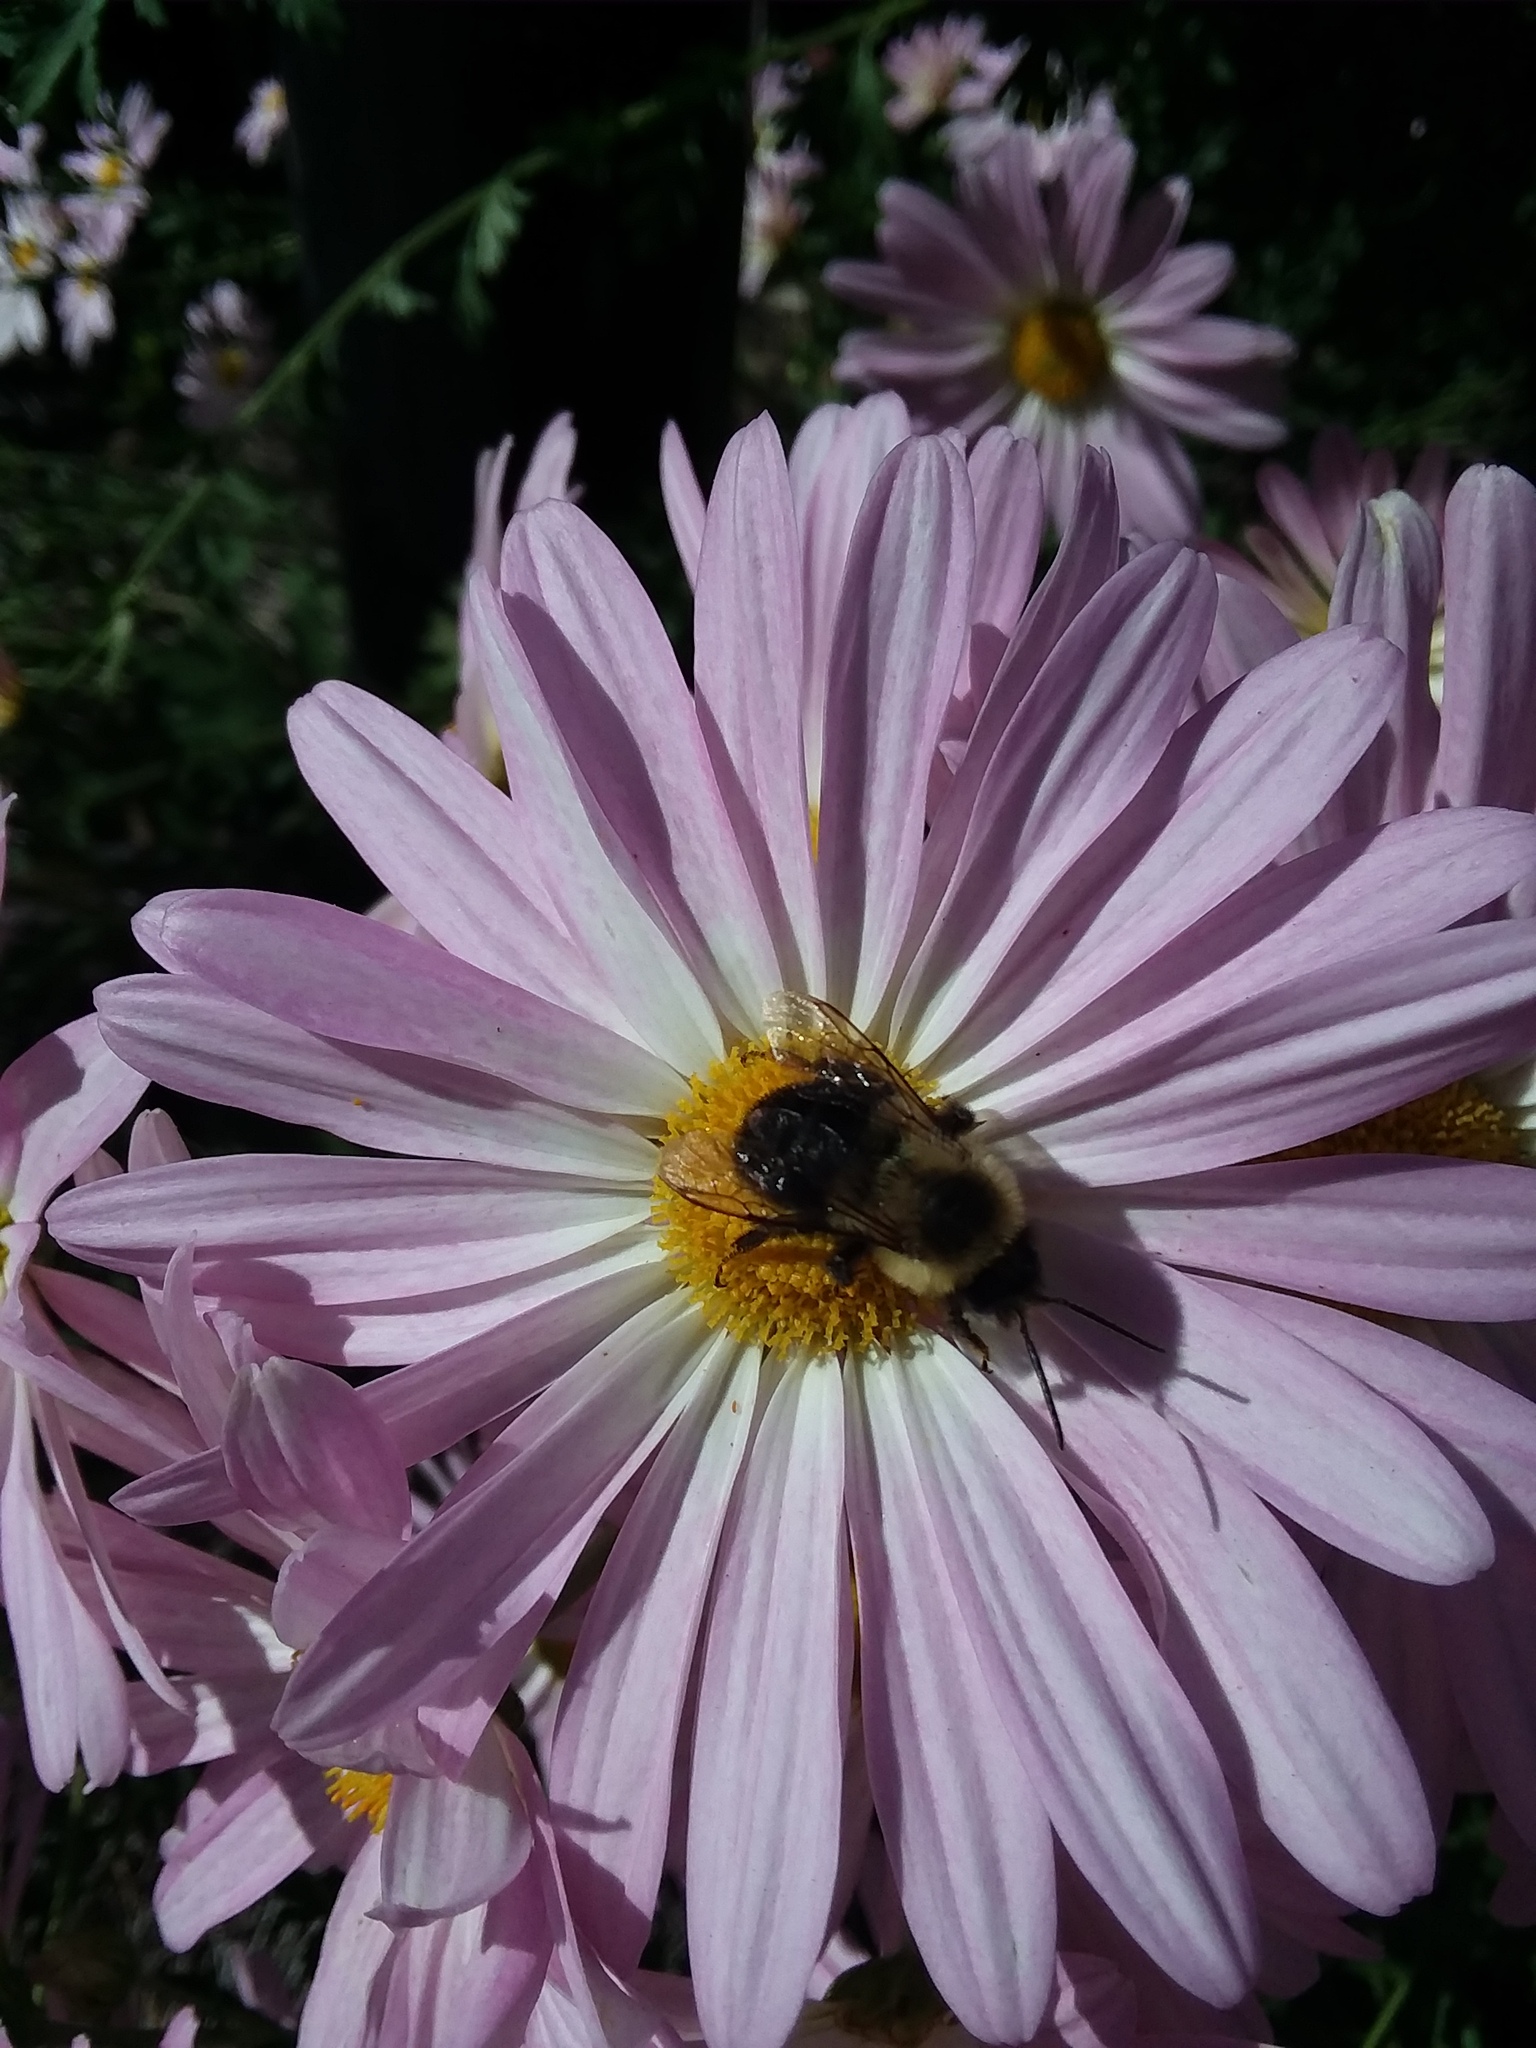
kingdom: Animalia
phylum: Arthropoda
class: Insecta
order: Hymenoptera
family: Apidae
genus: Bombus
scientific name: Bombus impatiens
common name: Common eastern bumble bee
